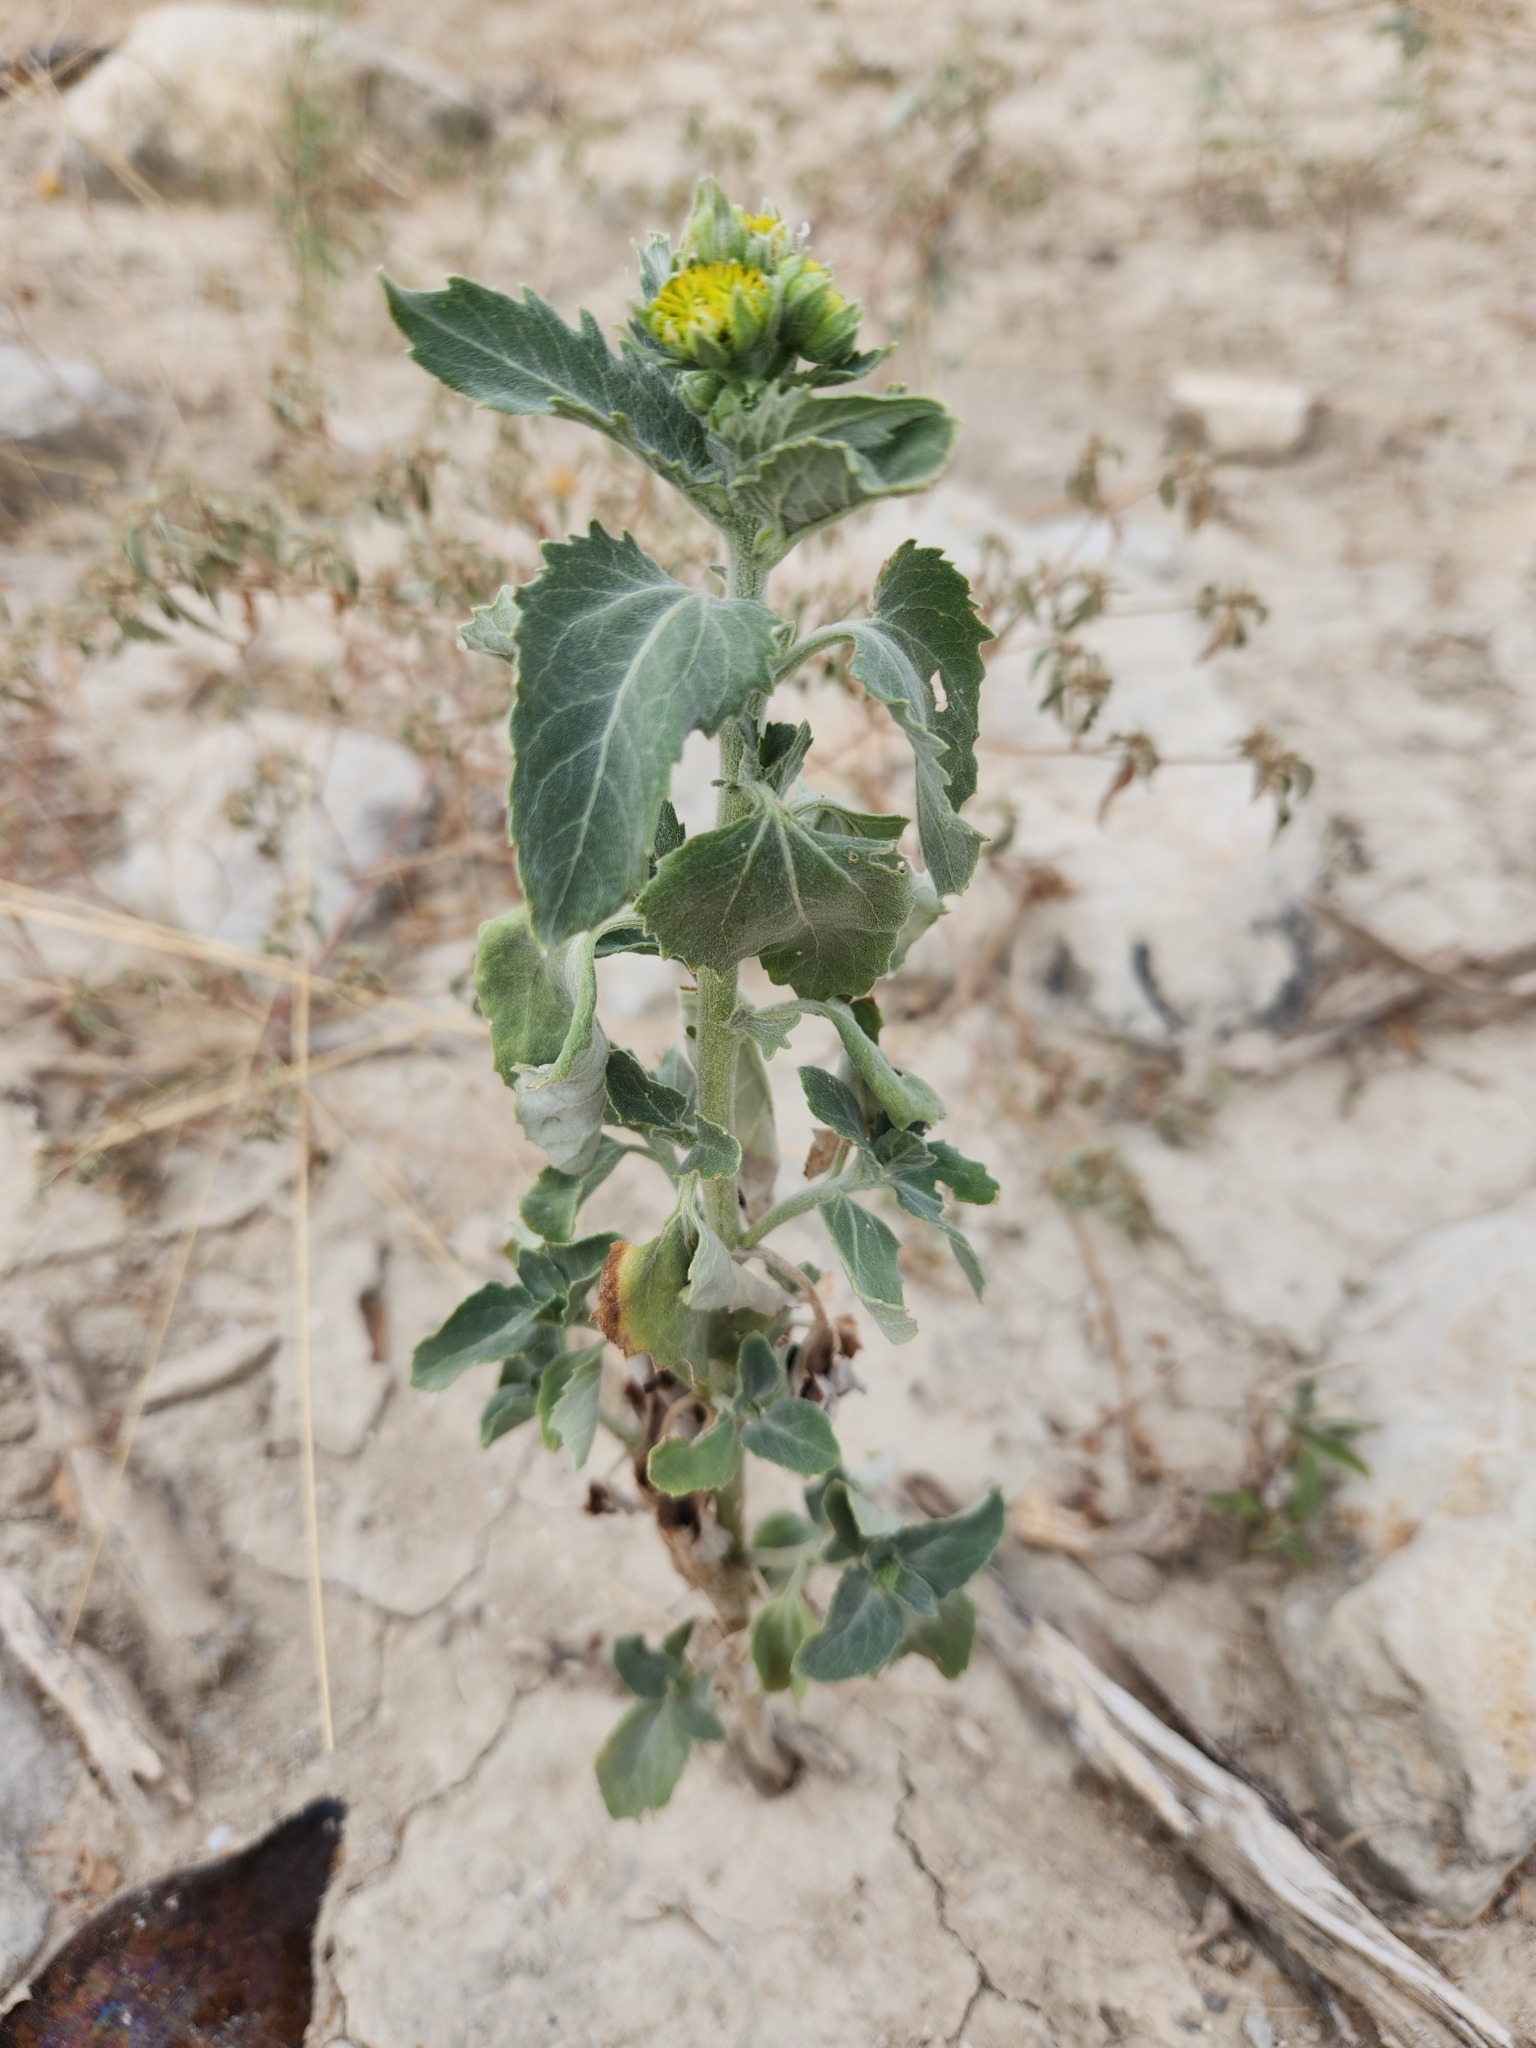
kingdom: Plantae
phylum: Tracheophyta
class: Magnoliopsida
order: Asterales
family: Asteraceae
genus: Verbesina
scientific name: Verbesina encelioides
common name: Golden crownbeard
